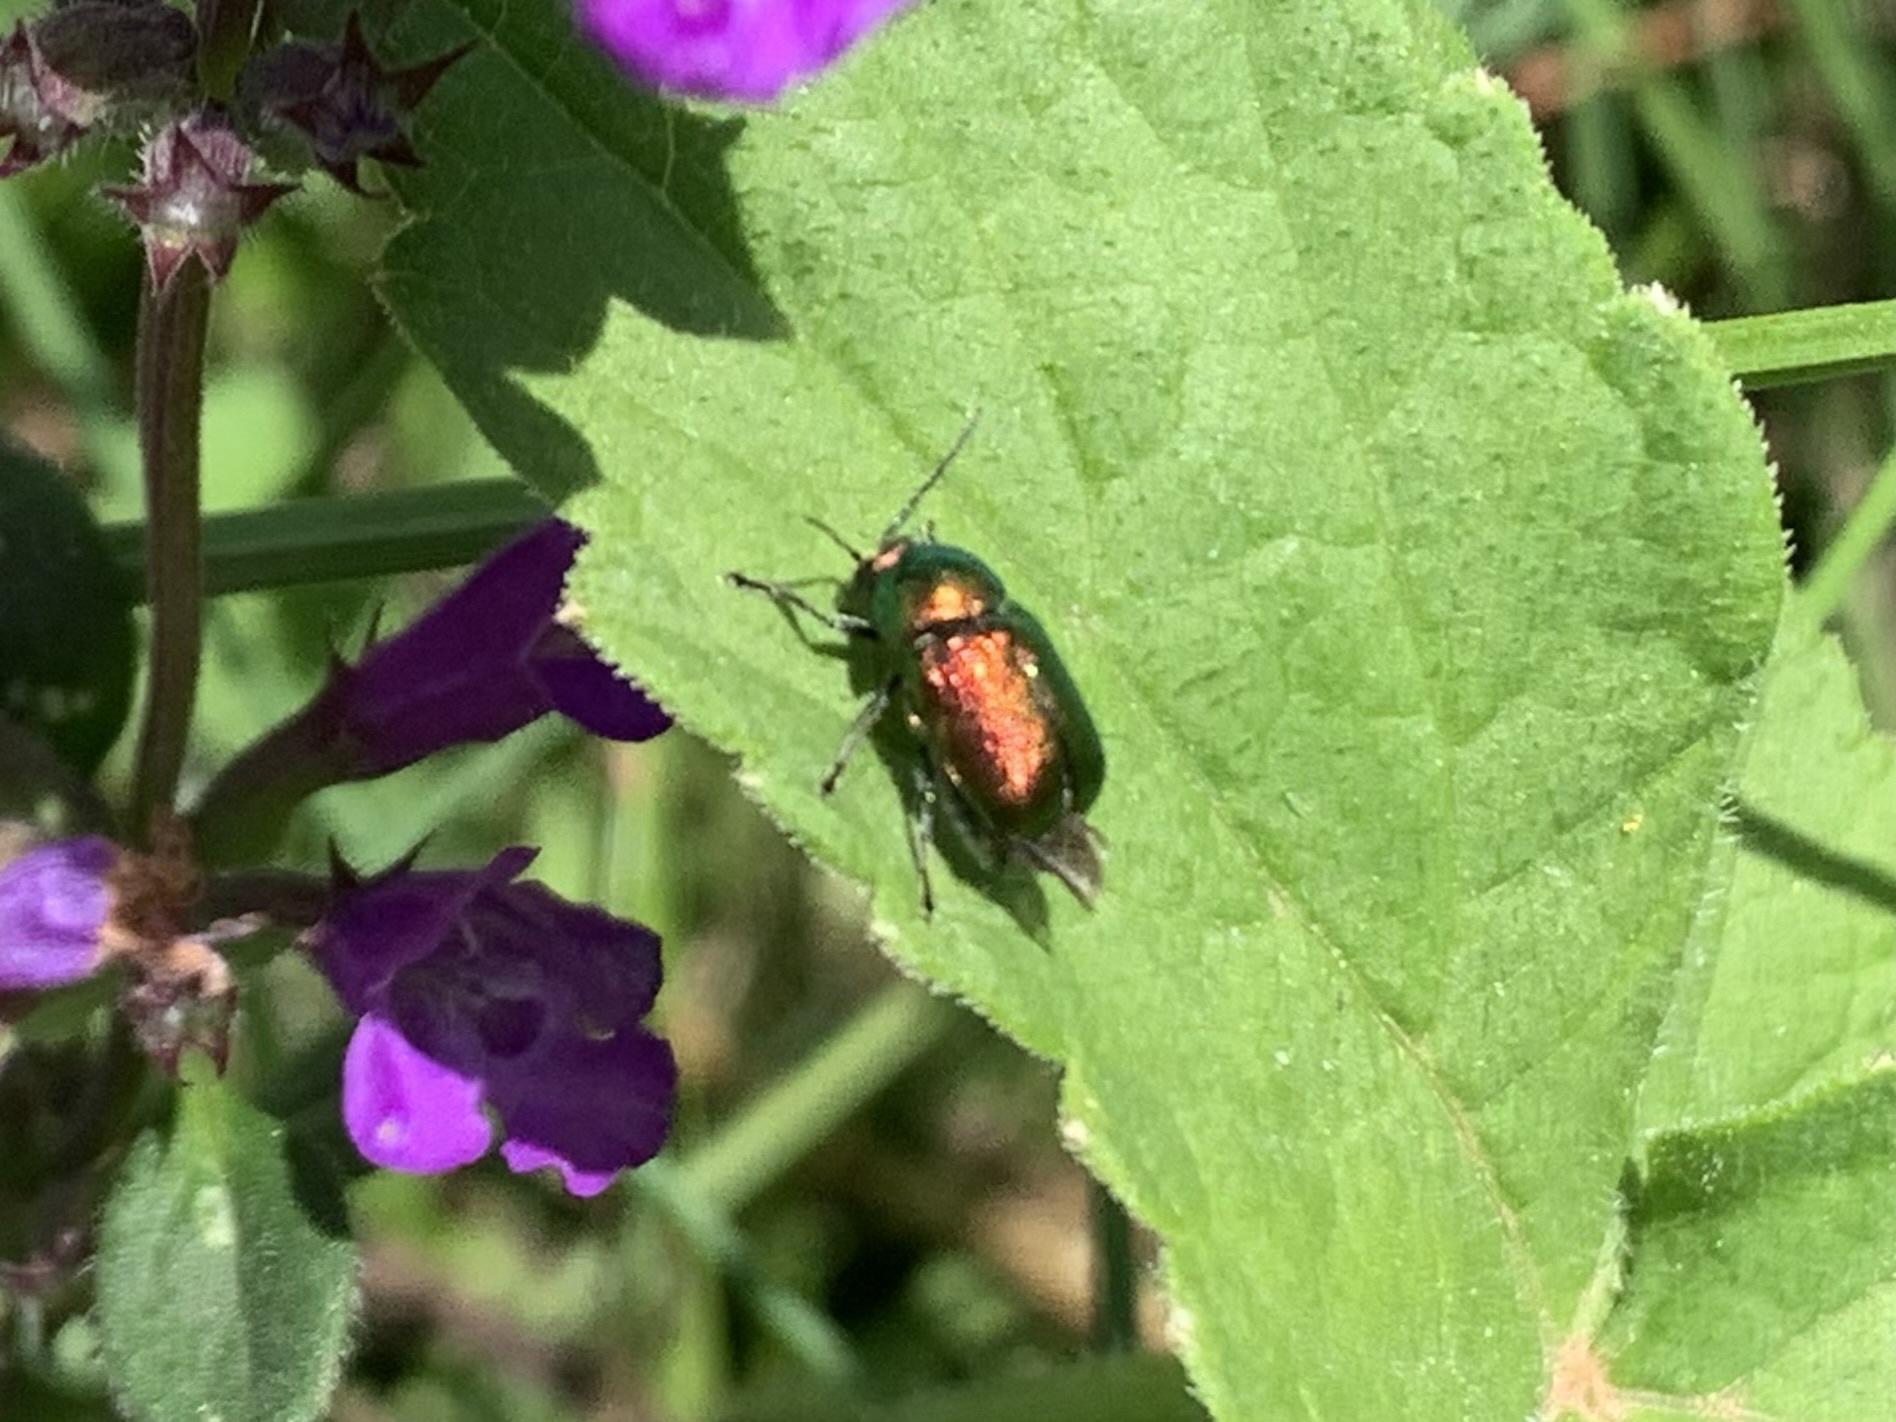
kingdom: Animalia
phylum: Arthropoda
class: Insecta
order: Coleoptera
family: Chrysomelidae
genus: Cryptocephalus
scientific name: Cryptocephalus
